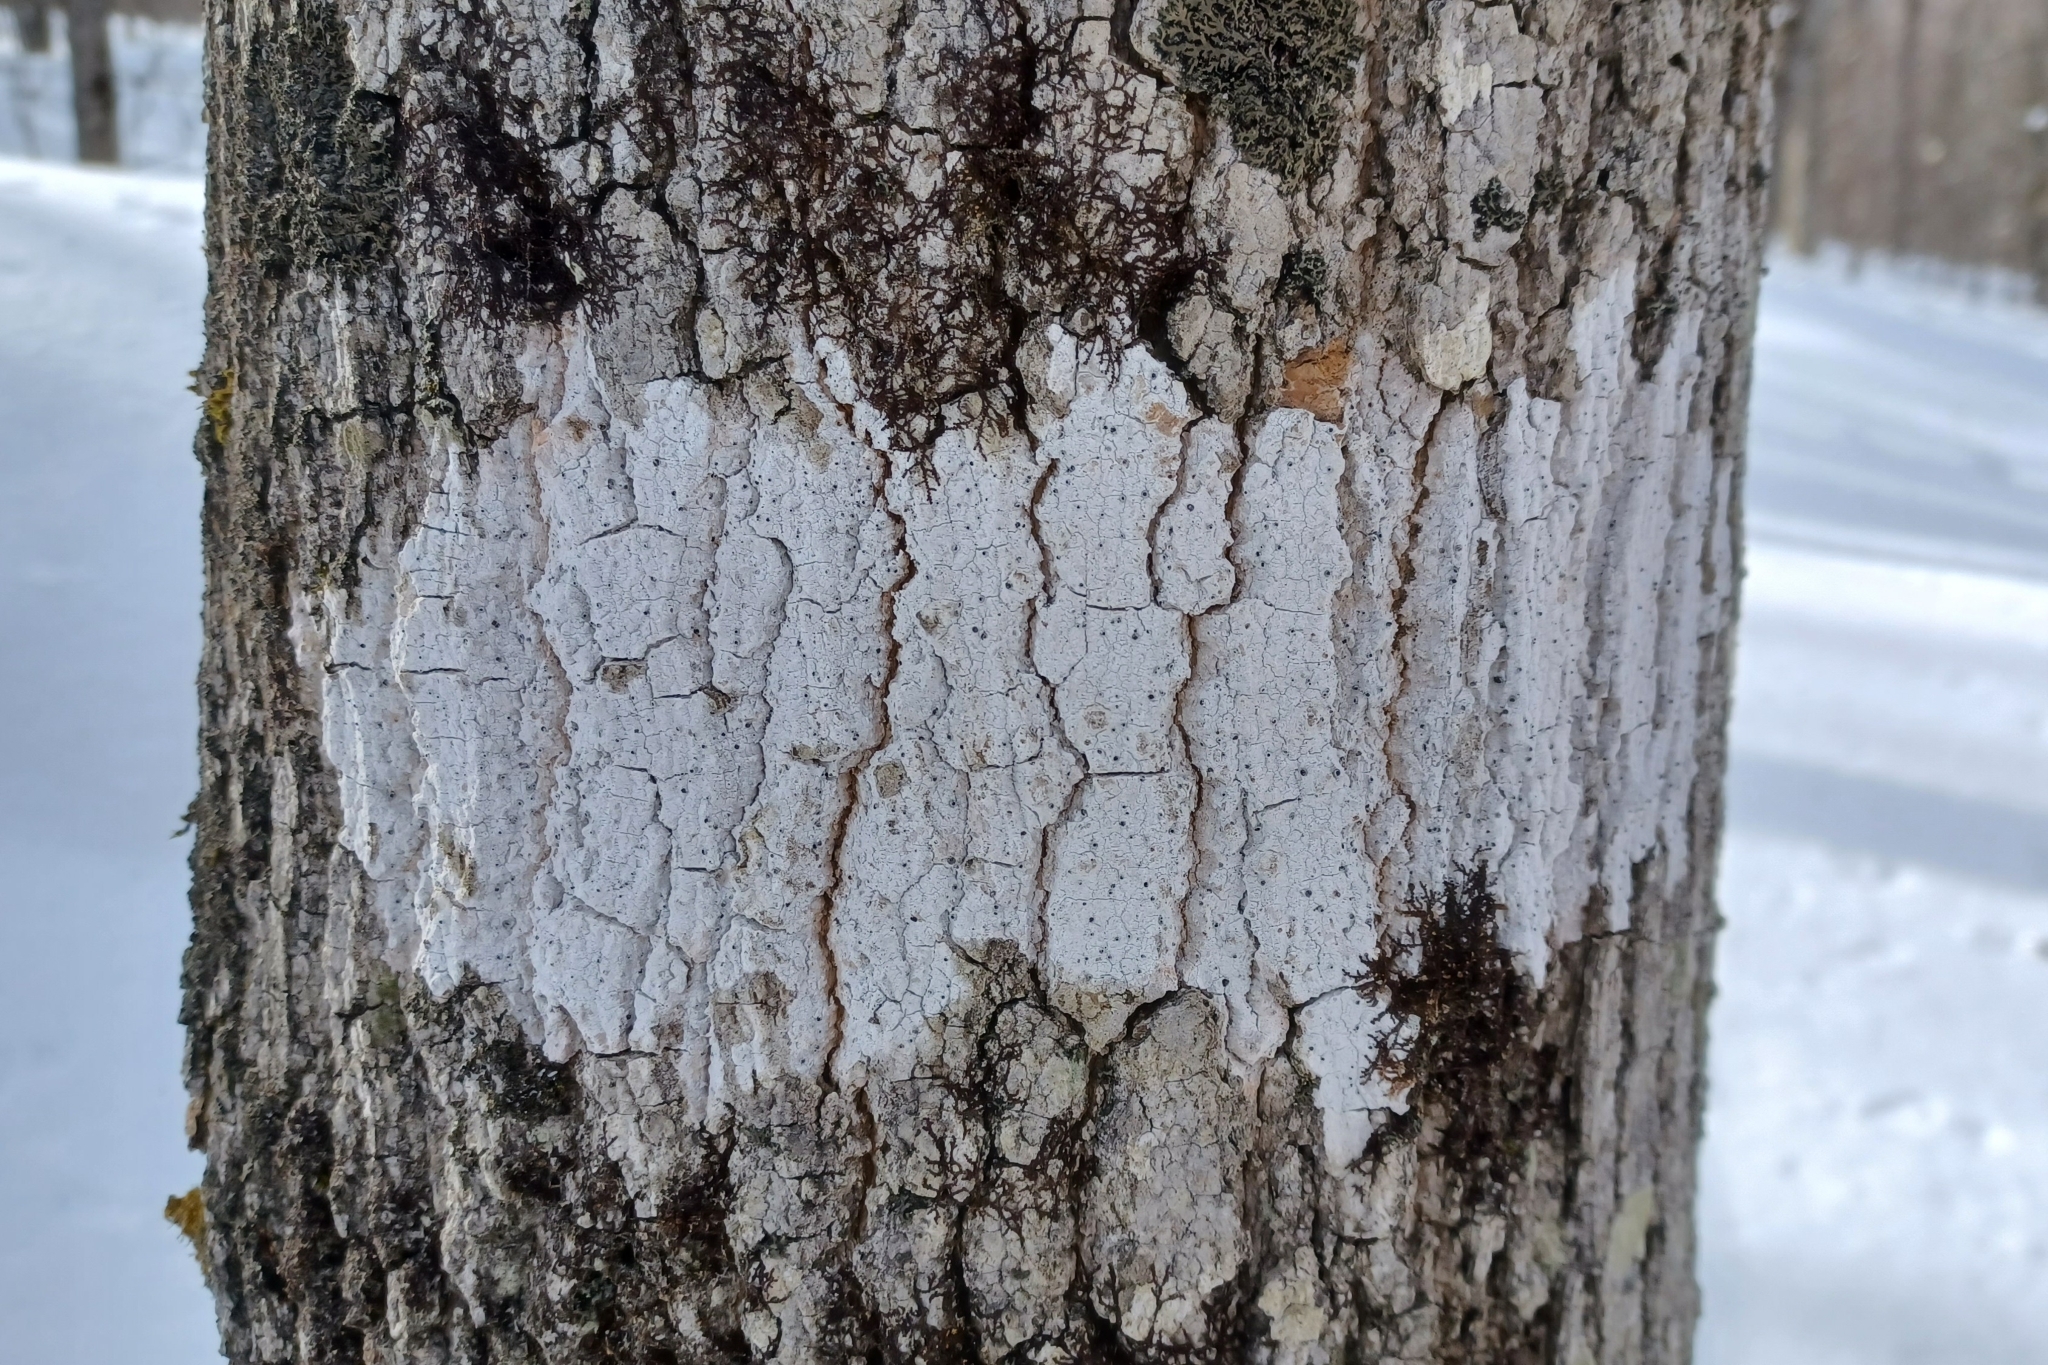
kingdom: Fungi
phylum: Ascomycota
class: Lecanoromycetes
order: Ostropales
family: Stictidaceae
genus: Stictis
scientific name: Stictis urceolata
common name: Can-of-worms lichen
